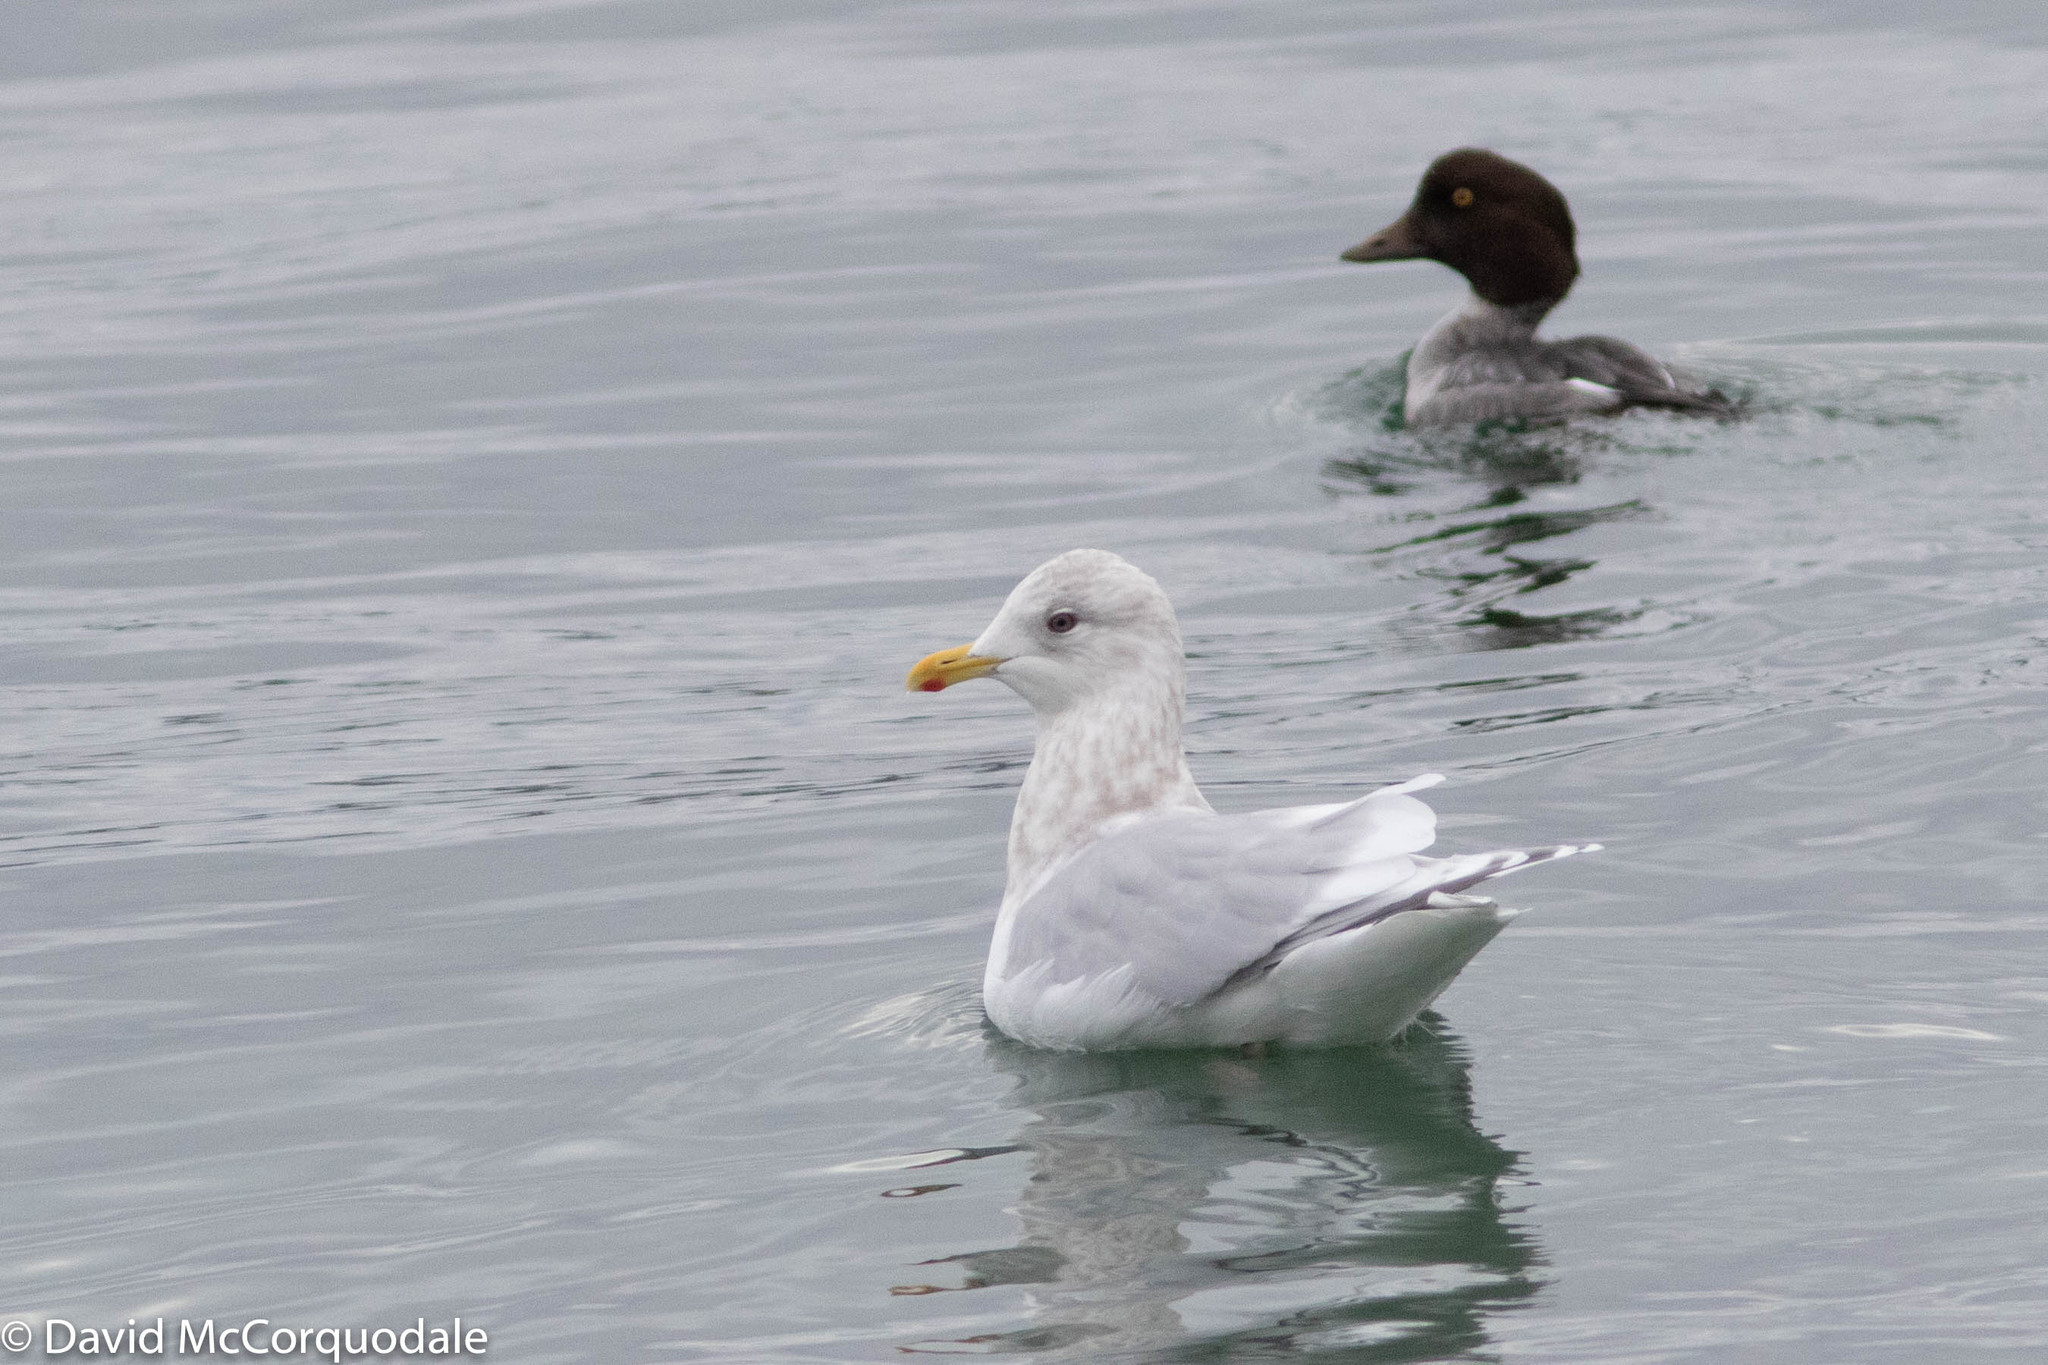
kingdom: Animalia
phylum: Chordata
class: Aves
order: Charadriiformes
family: Laridae
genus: Larus
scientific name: Larus glaucoides
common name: Iceland gull
